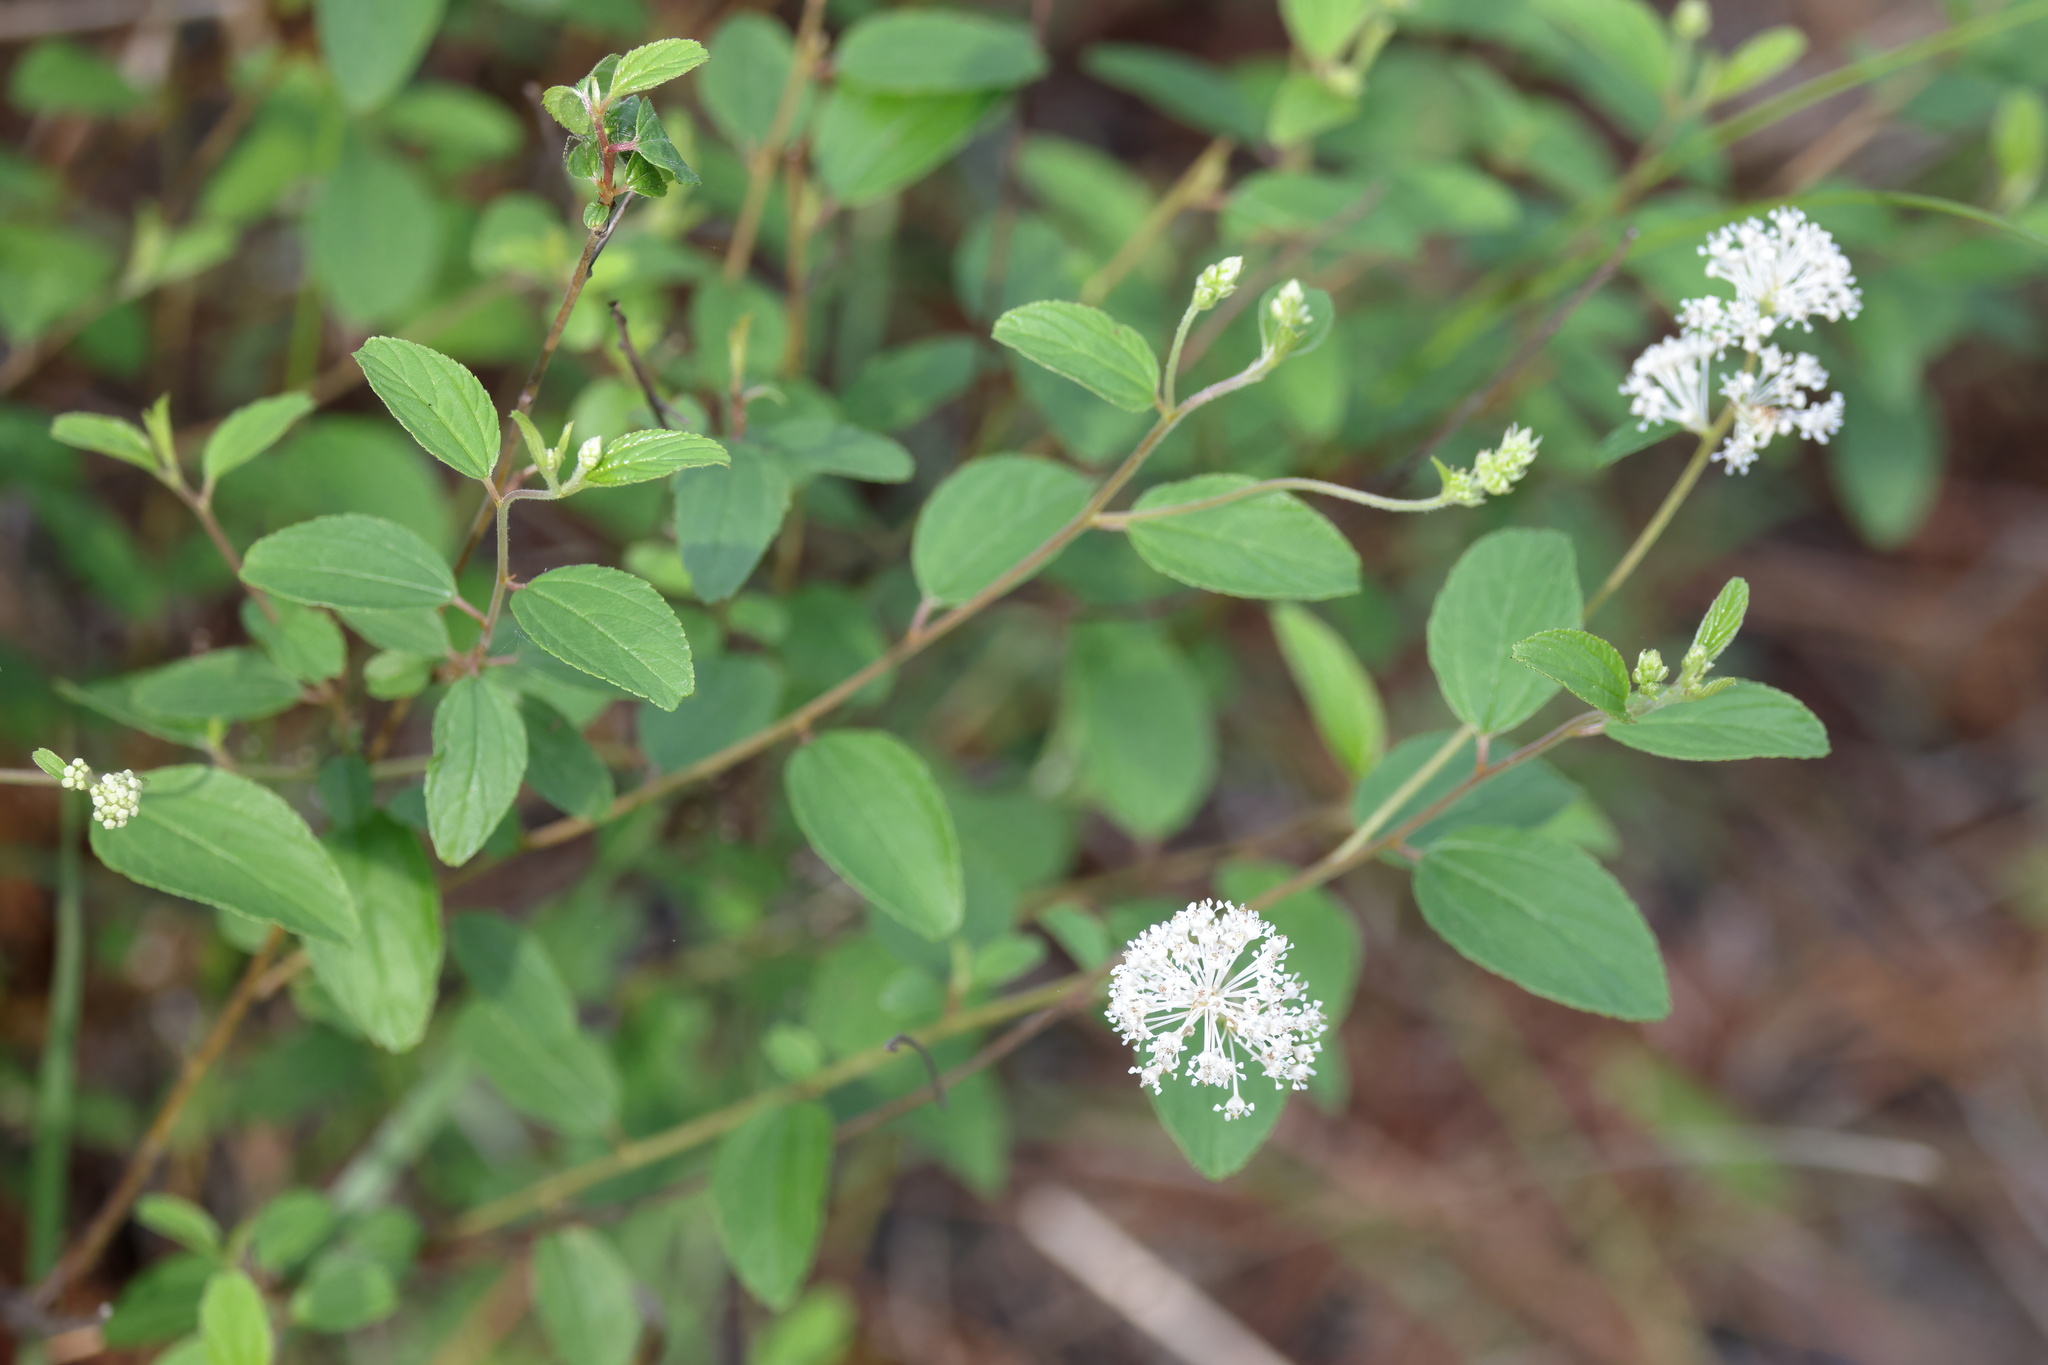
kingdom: Plantae
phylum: Tracheophyta
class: Magnoliopsida
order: Rosales
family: Rhamnaceae
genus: Ceanothus
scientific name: Ceanothus americanus
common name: Redroot
